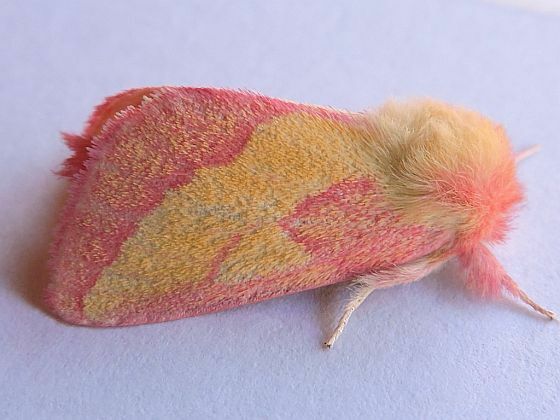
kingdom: Animalia
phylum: Arthropoda
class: Insecta
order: Lepidoptera
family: Notodontidae
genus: Hyparpax
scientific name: Hyparpax aurora
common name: Pink prominent
